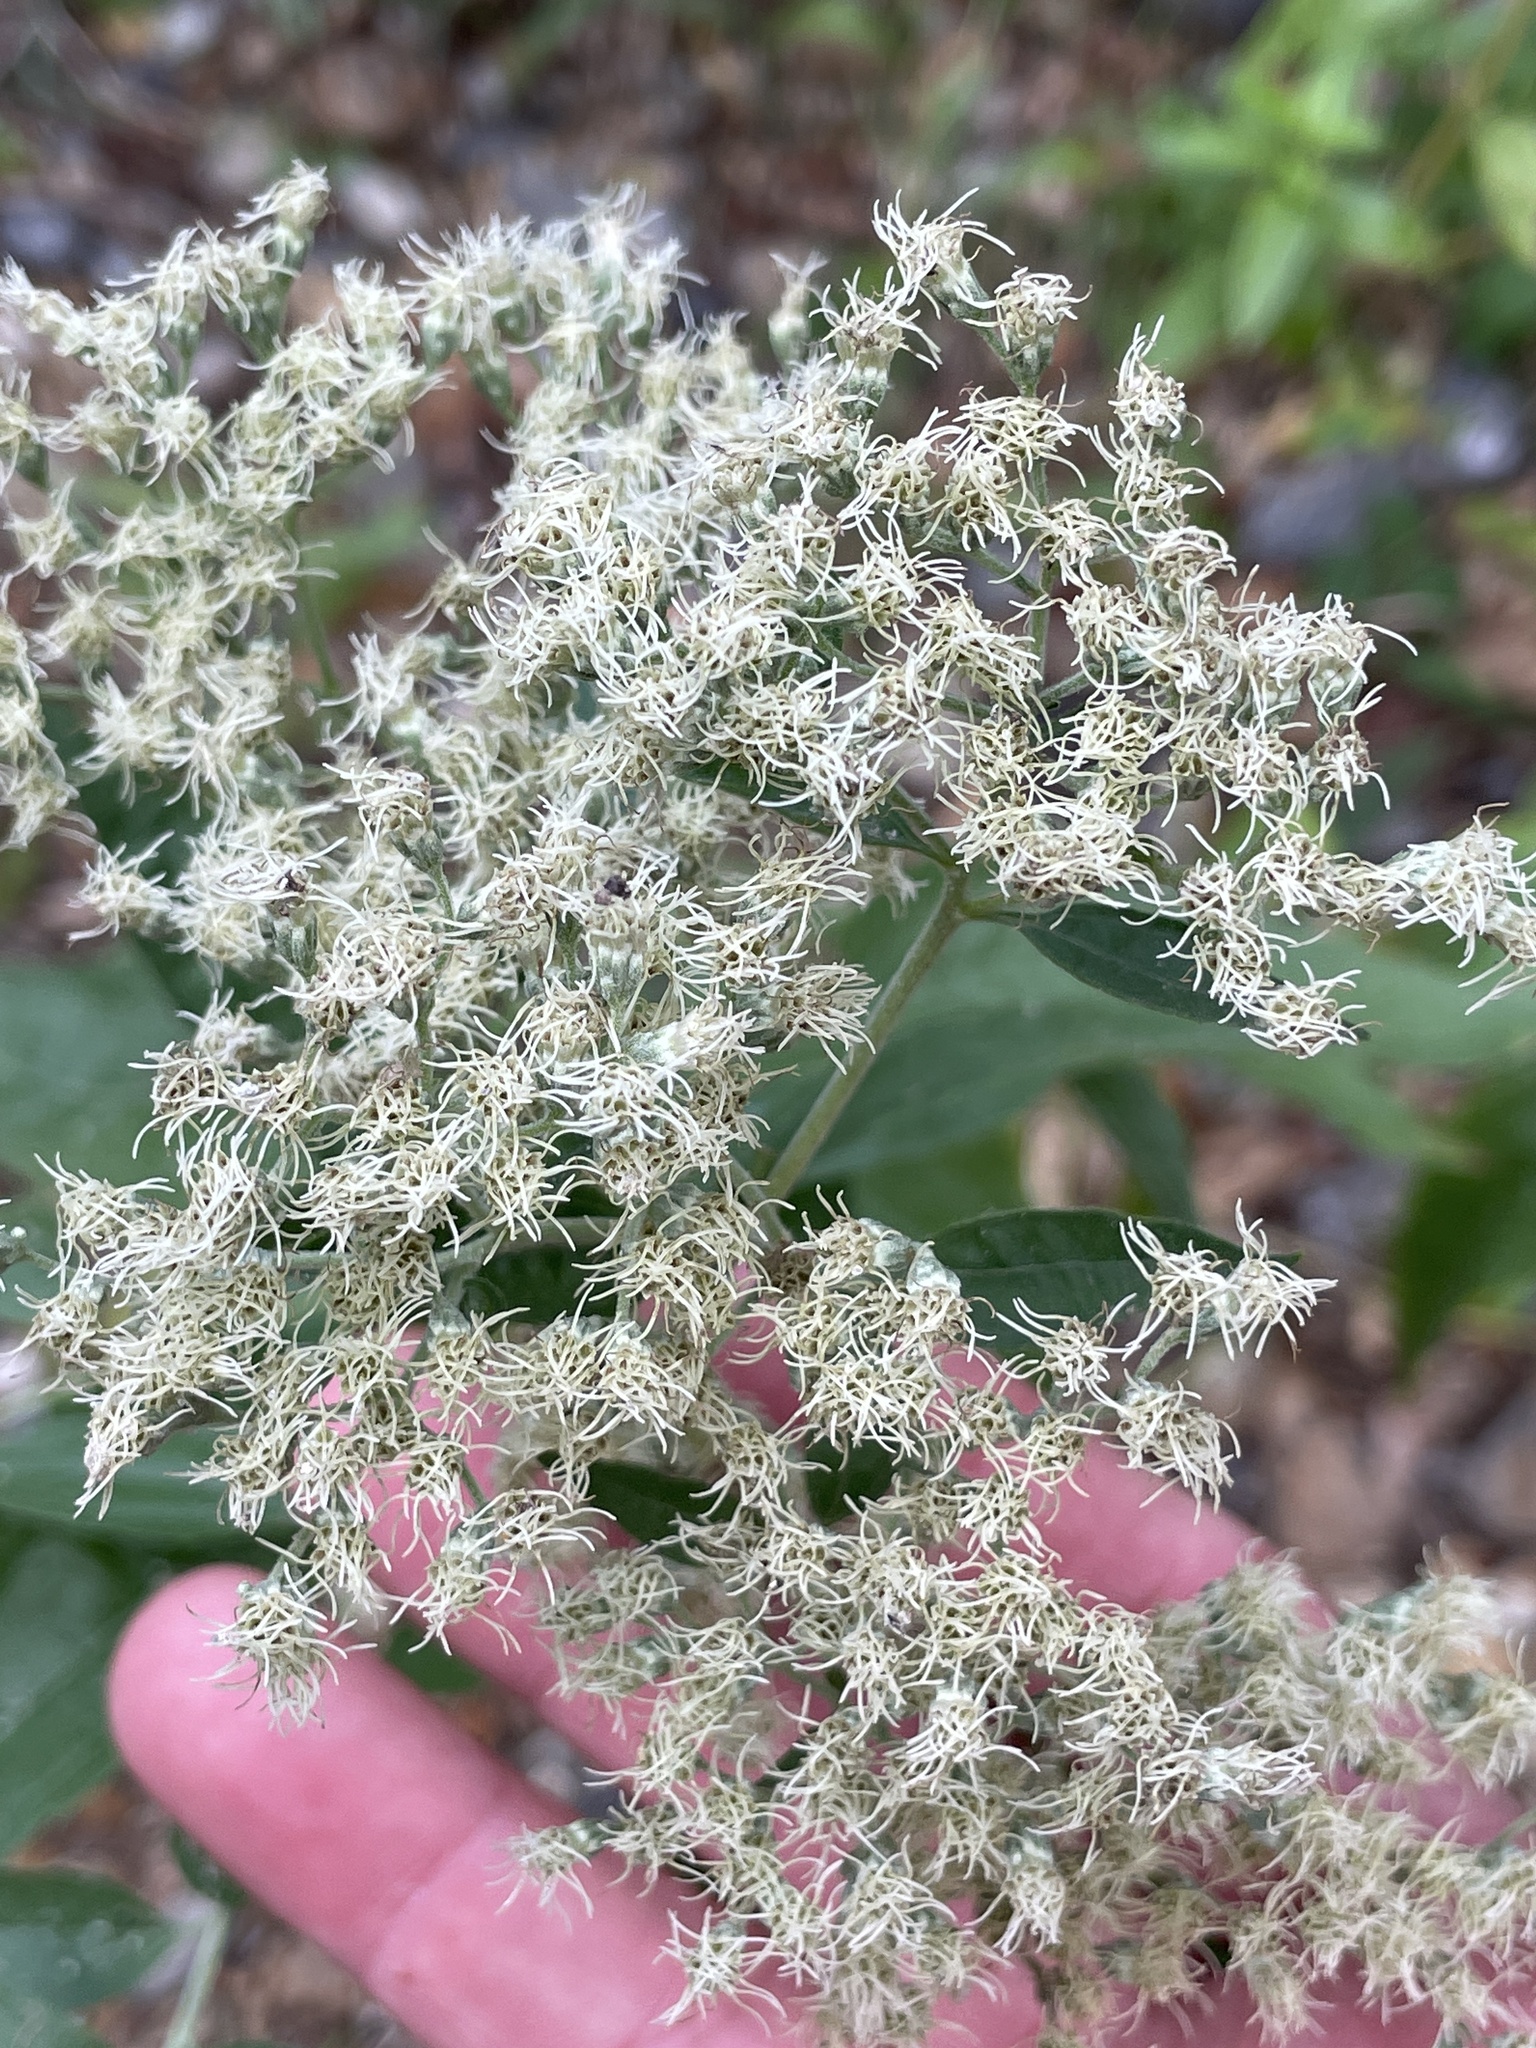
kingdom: Plantae
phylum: Tracheophyta
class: Magnoliopsida
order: Asterales
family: Asteraceae
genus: Eupatorium
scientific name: Eupatorium serotinum
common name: Late boneset
